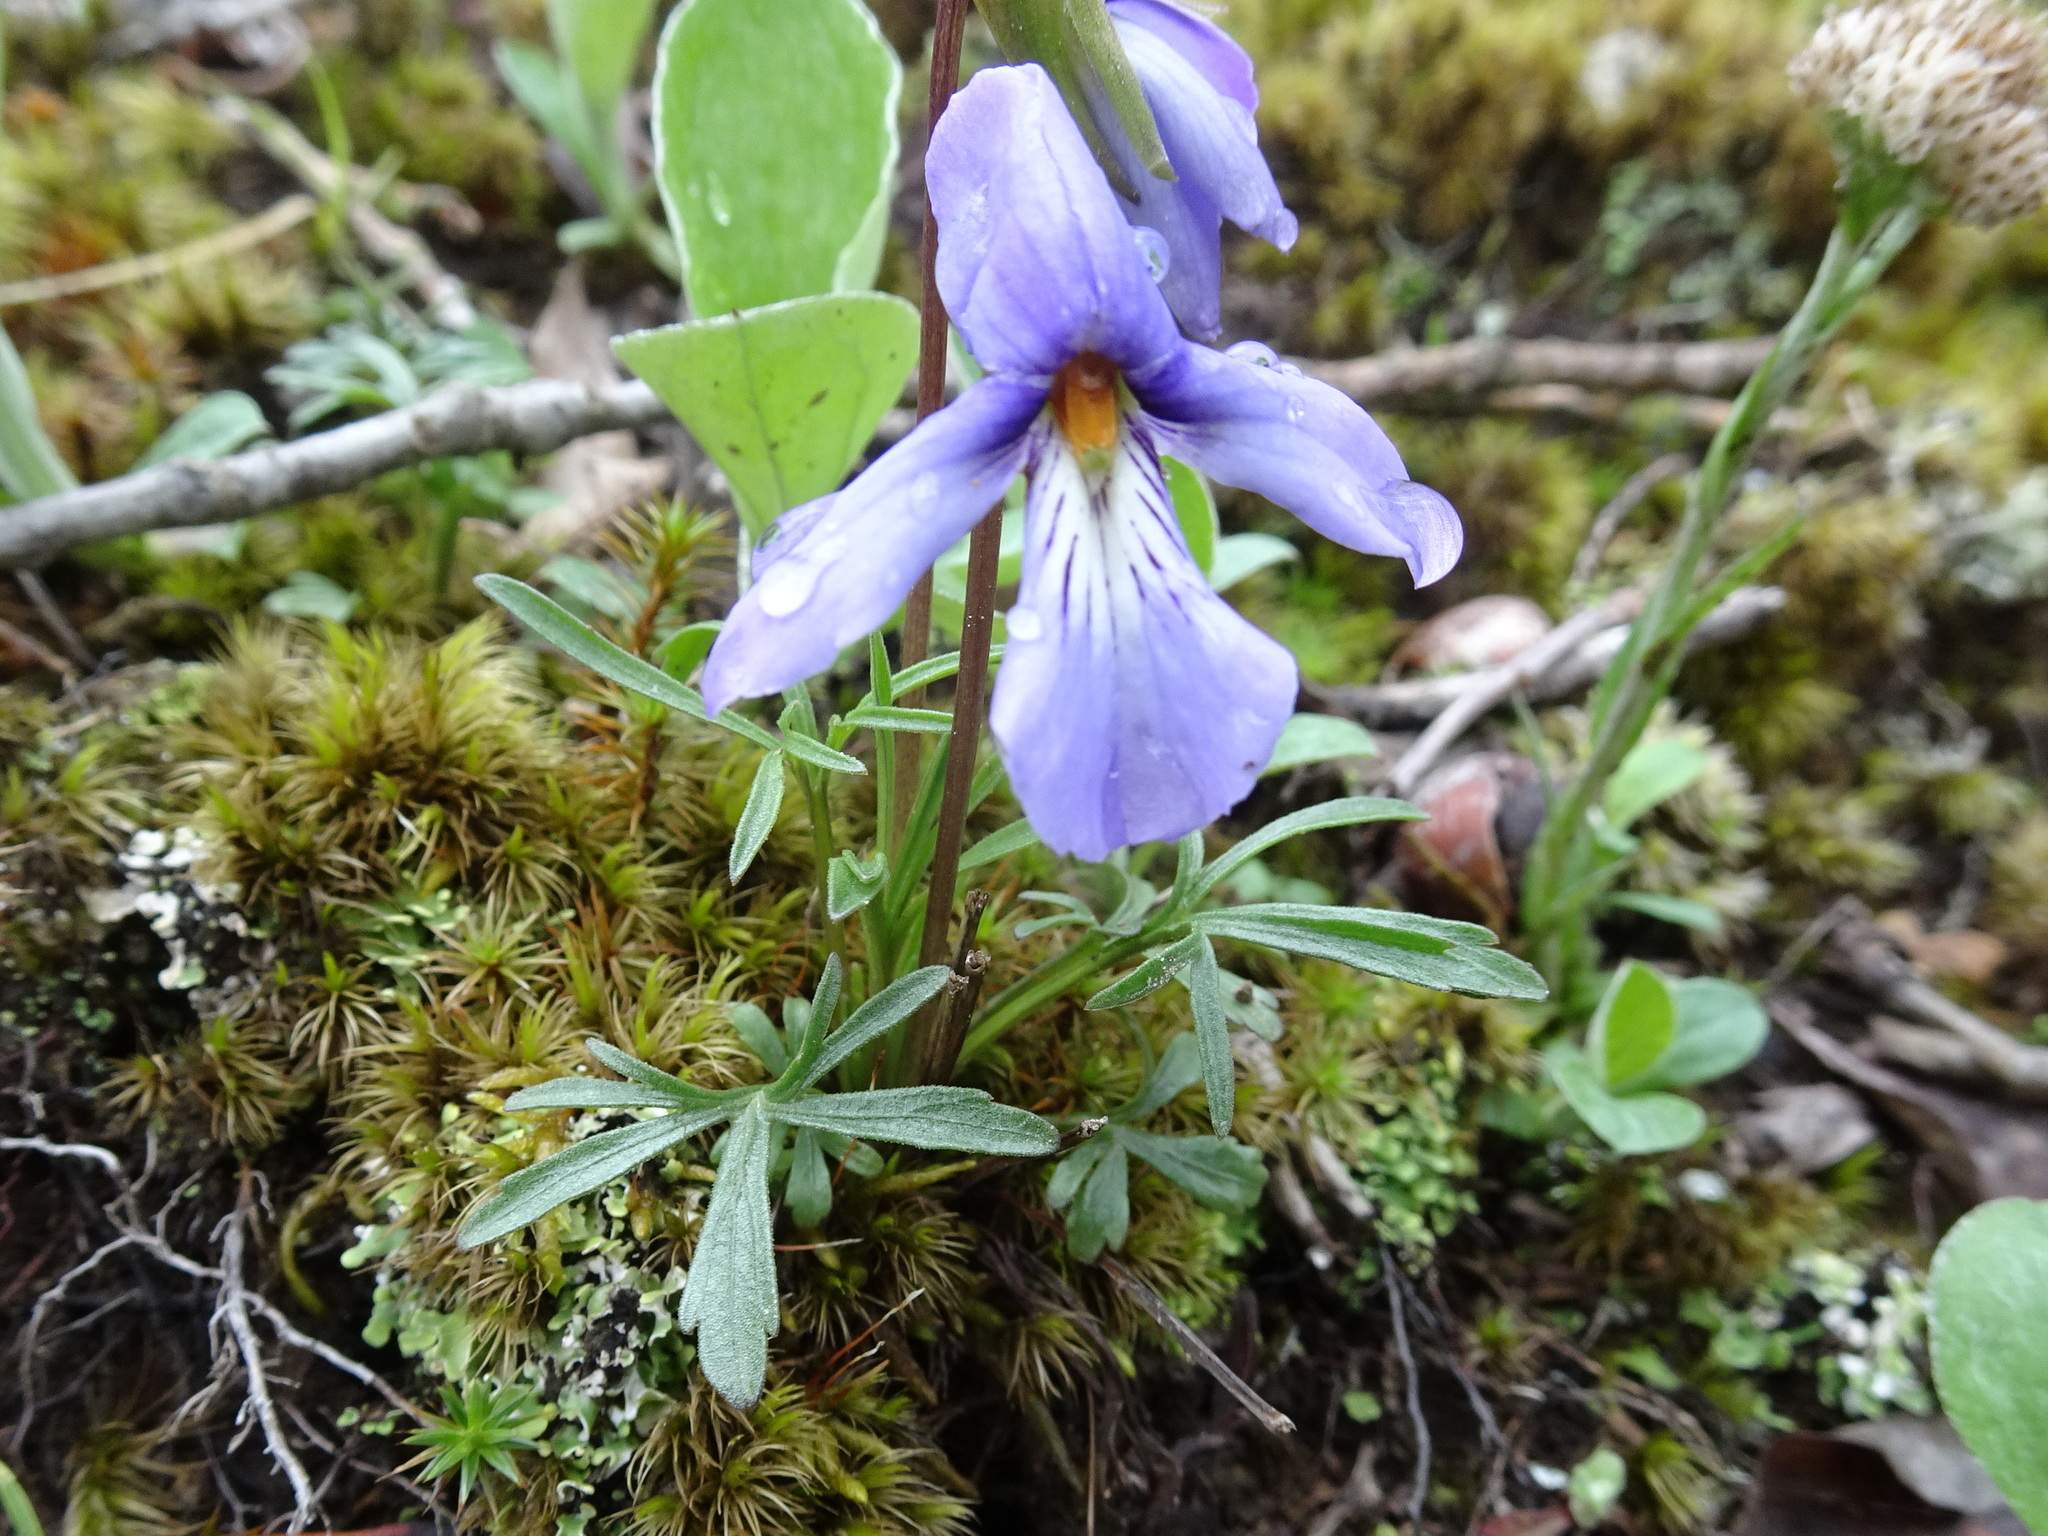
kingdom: Plantae
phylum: Tracheophyta
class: Magnoliopsida
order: Malpighiales
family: Violaceae
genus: Viola
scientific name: Viola pedata
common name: Pansy violet
